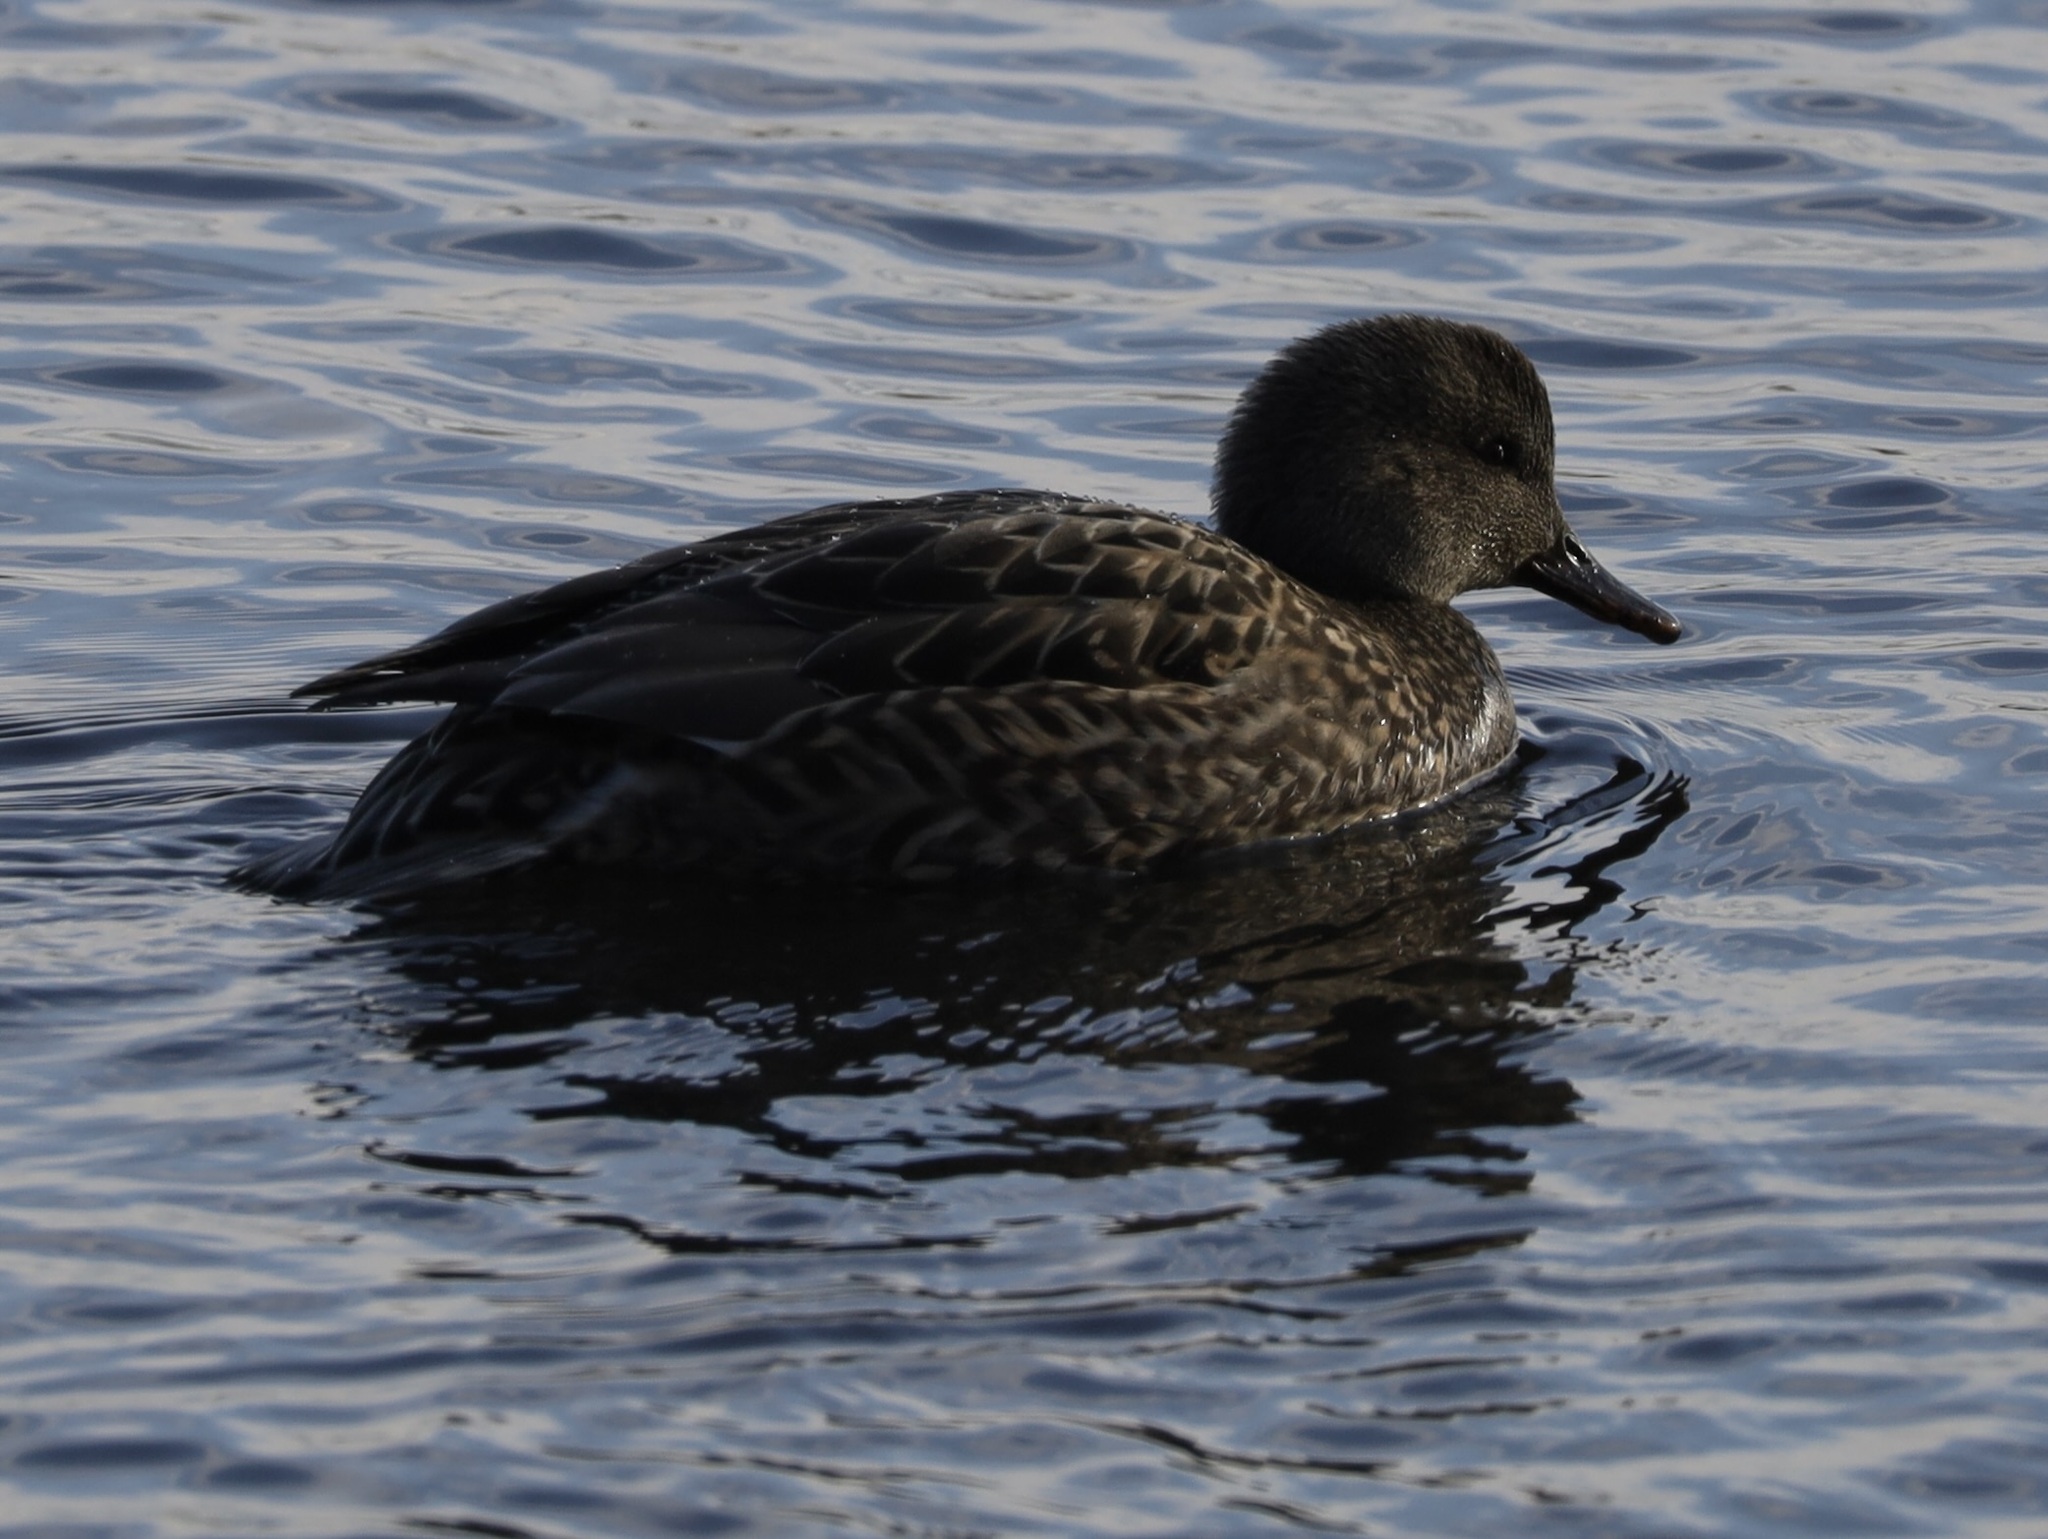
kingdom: Animalia
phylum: Chordata
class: Aves
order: Anseriformes
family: Anatidae
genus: Mareca
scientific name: Mareca strepera
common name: Gadwall
